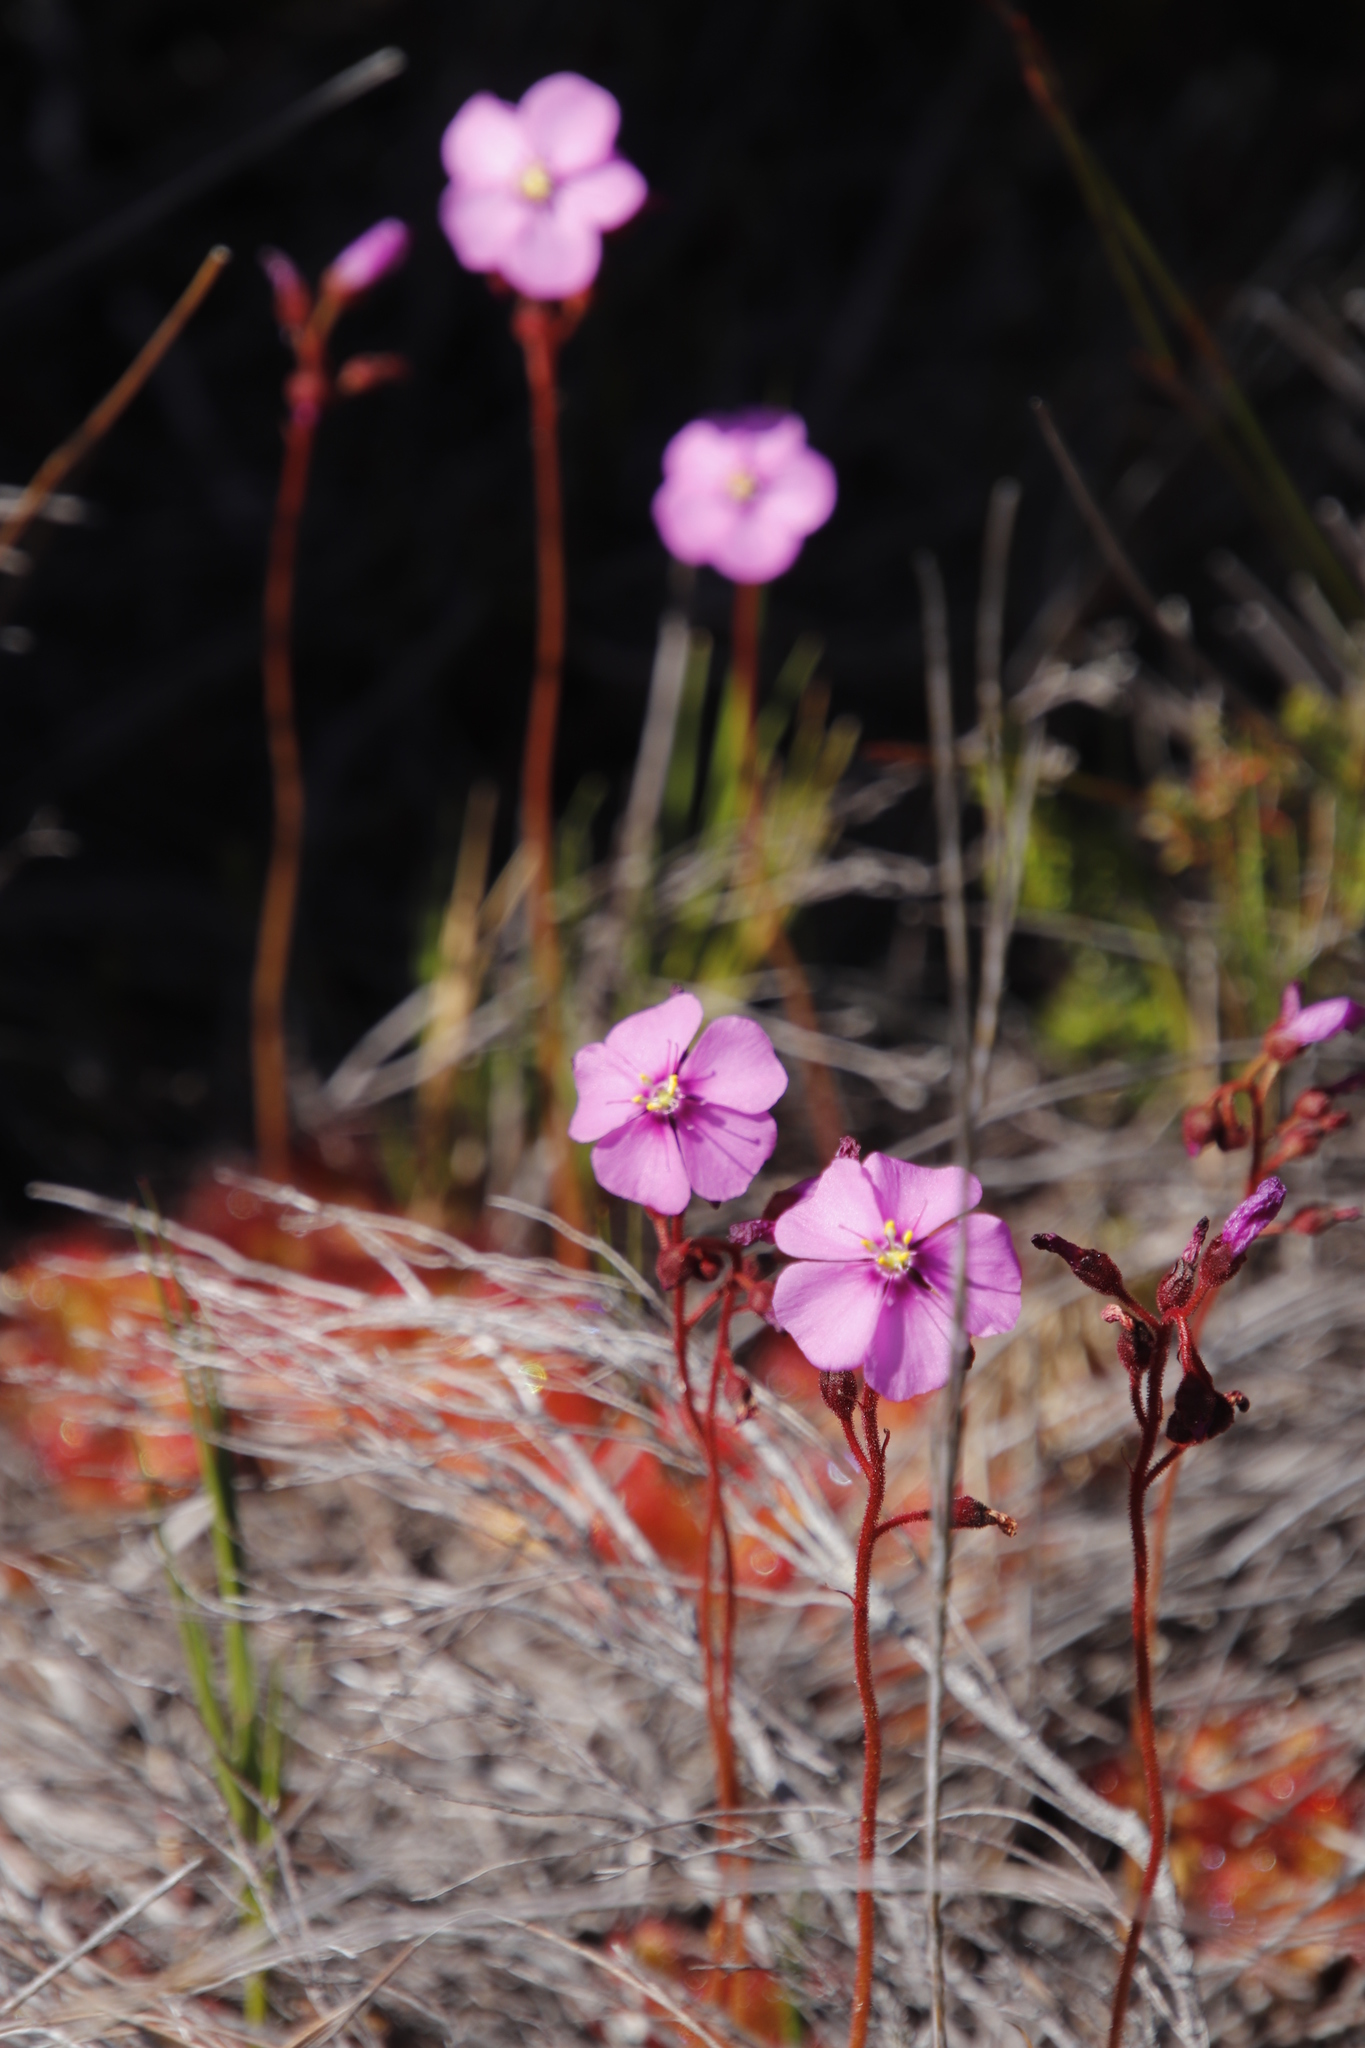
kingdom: Plantae
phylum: Tracheophyta
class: Magnoliopsida
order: Caryophyllales
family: Droseraceae
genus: Drosera
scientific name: Drosera cuneifolia
